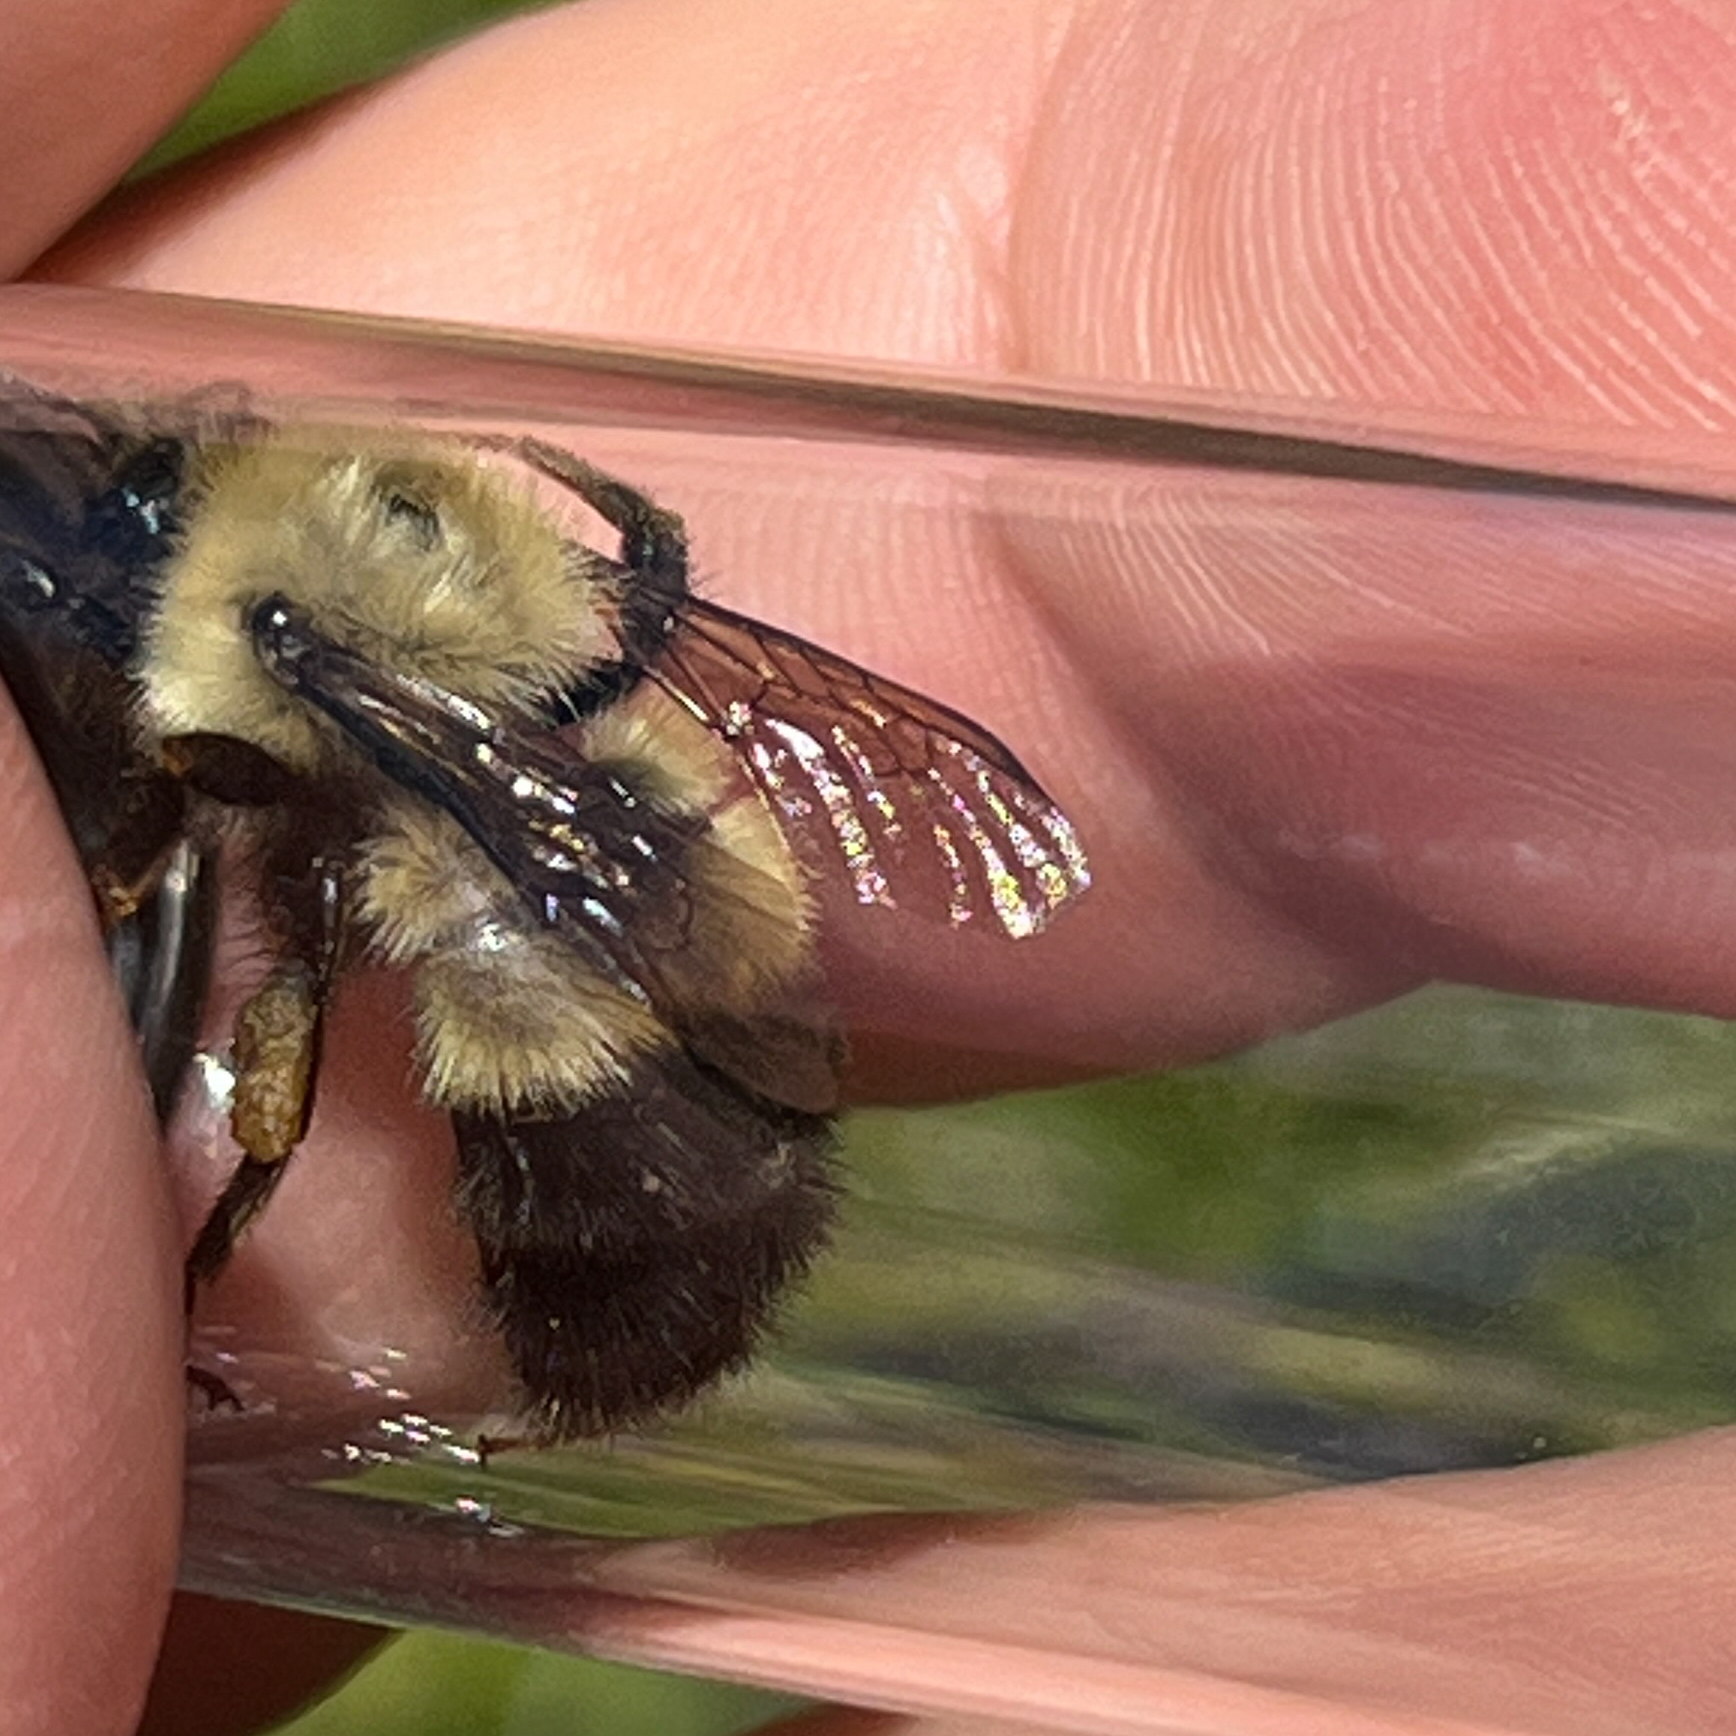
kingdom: Animalia
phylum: Arthropoda
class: Insecta
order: Hymenoptera
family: Apidae
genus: Pyrobombus
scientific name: Pyrobombus
